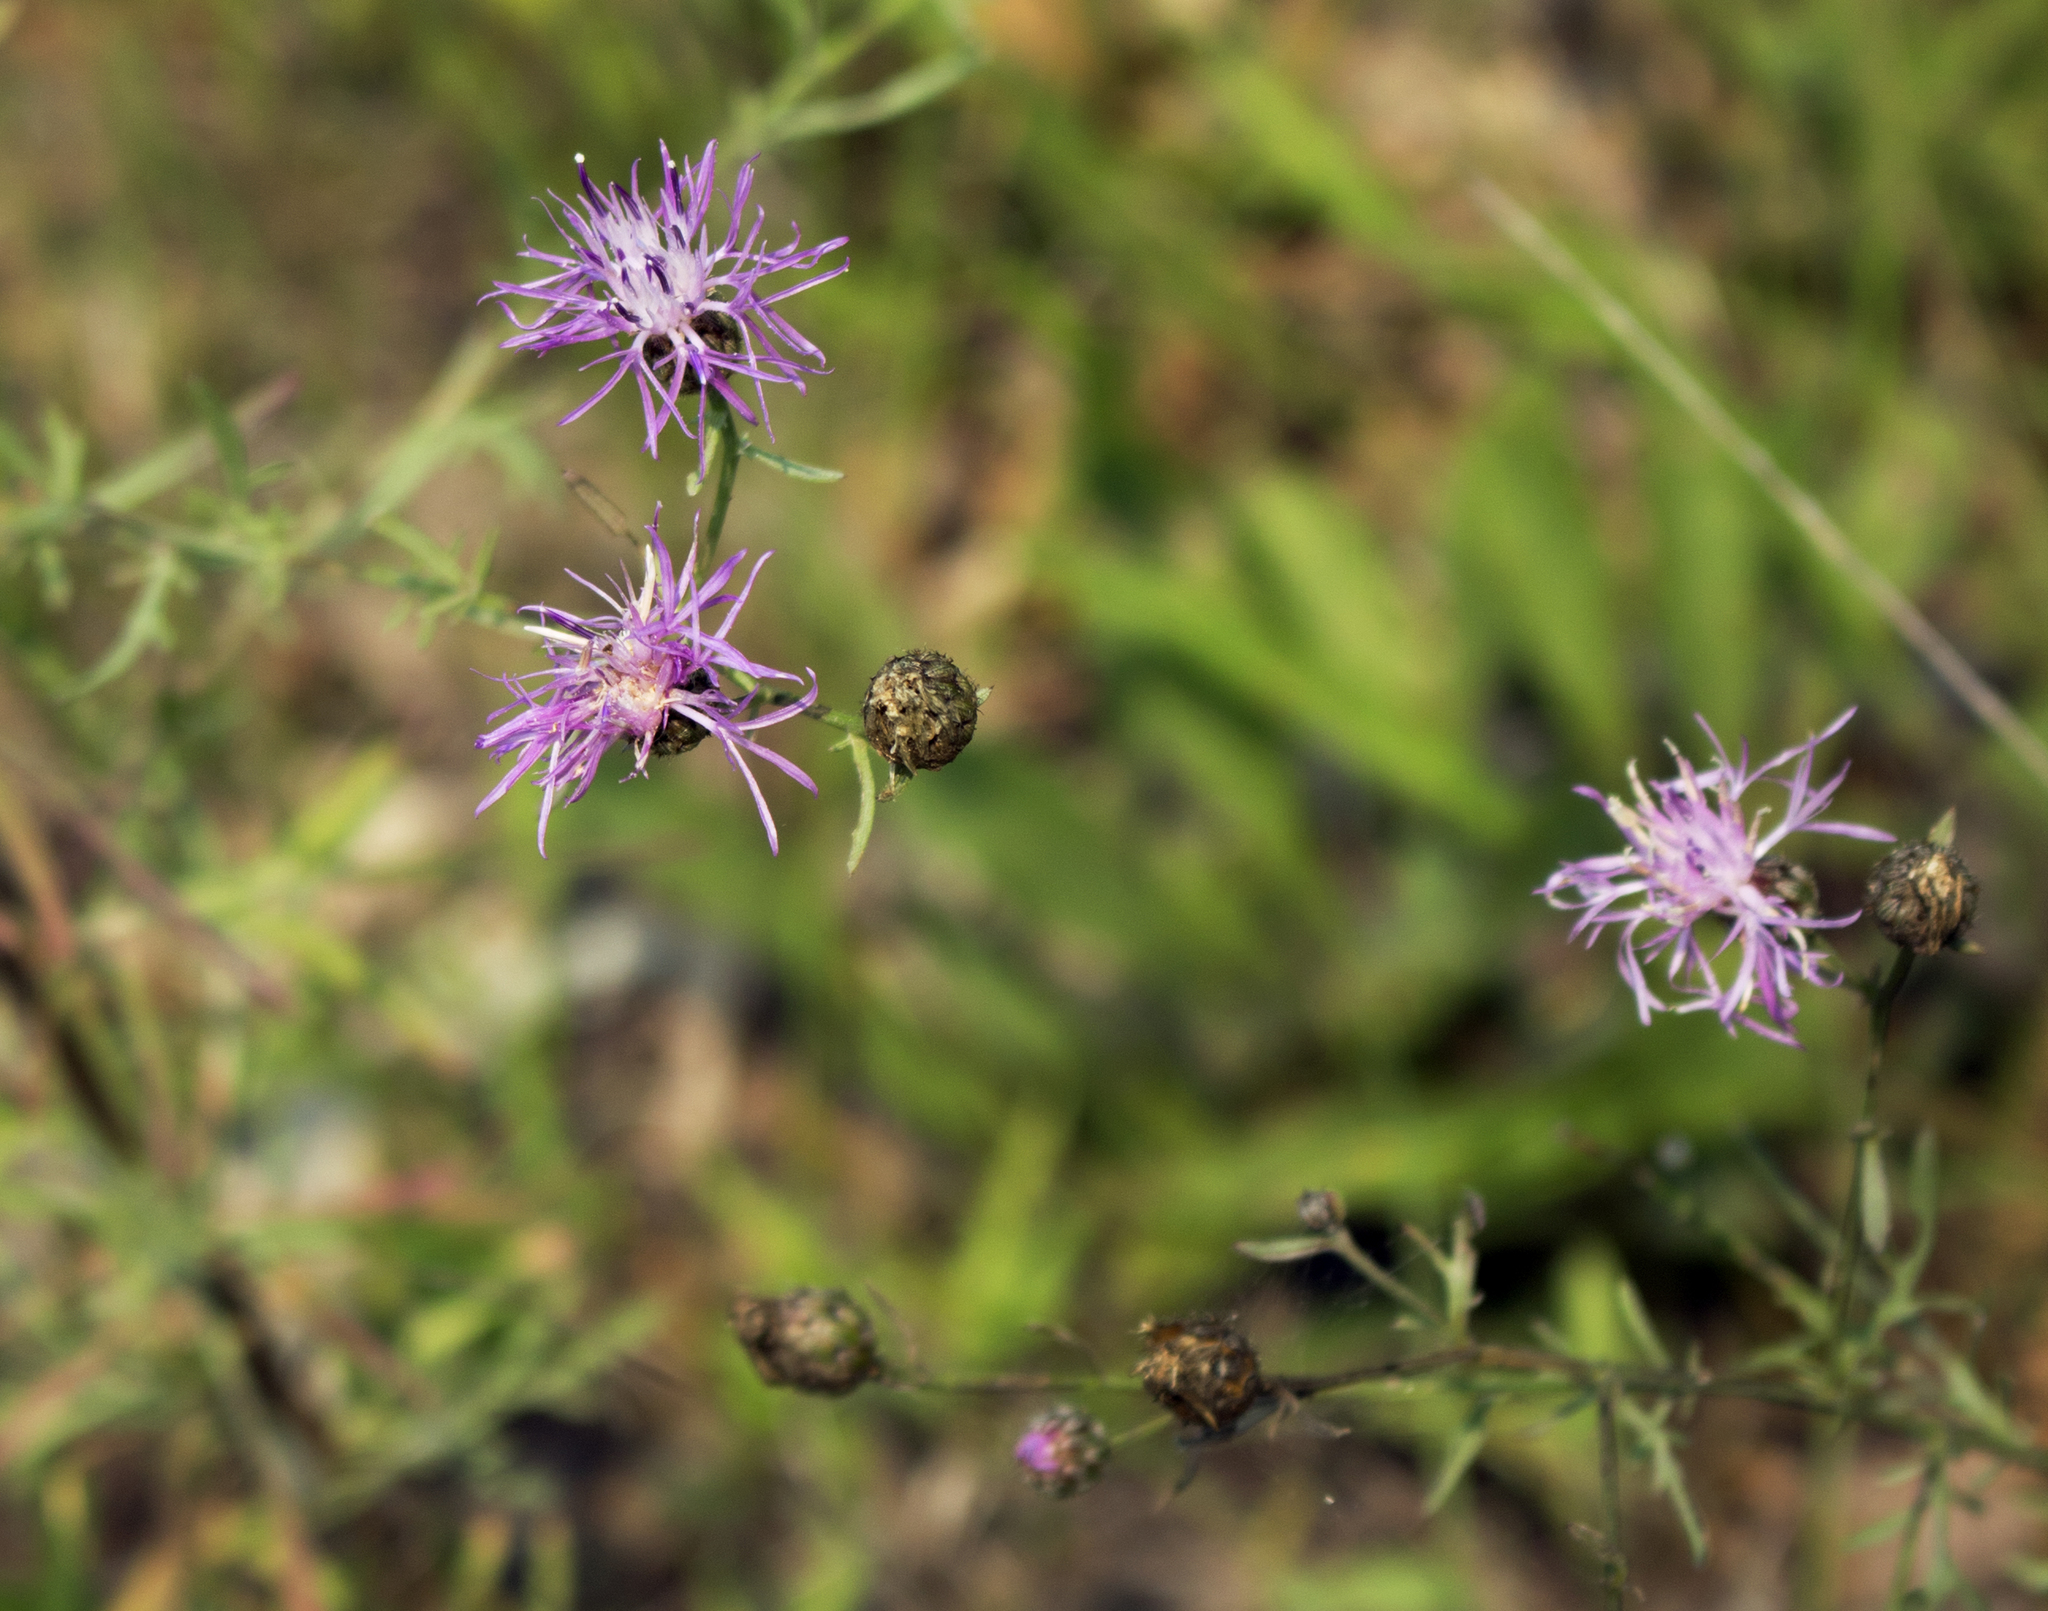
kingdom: Plantae
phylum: Tracheophyta
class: Magnoliopsida
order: Asterales
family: Asteraceae
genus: Centaurea
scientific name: Centaurea stoebe
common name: Spotted knapweed
